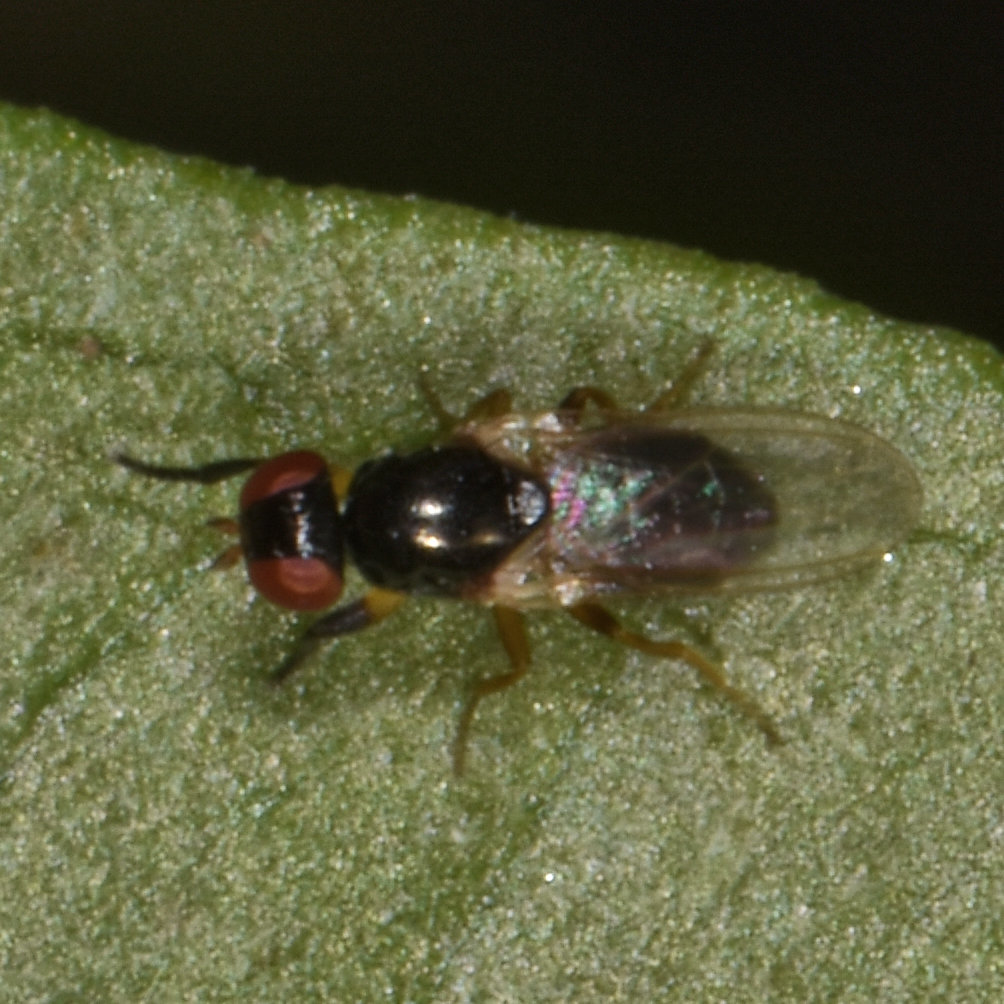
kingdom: Animalia
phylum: Arthropoda
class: Insecta
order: Diptera
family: Piophilidae
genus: Protopiophila
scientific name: Protopiophila latipes
